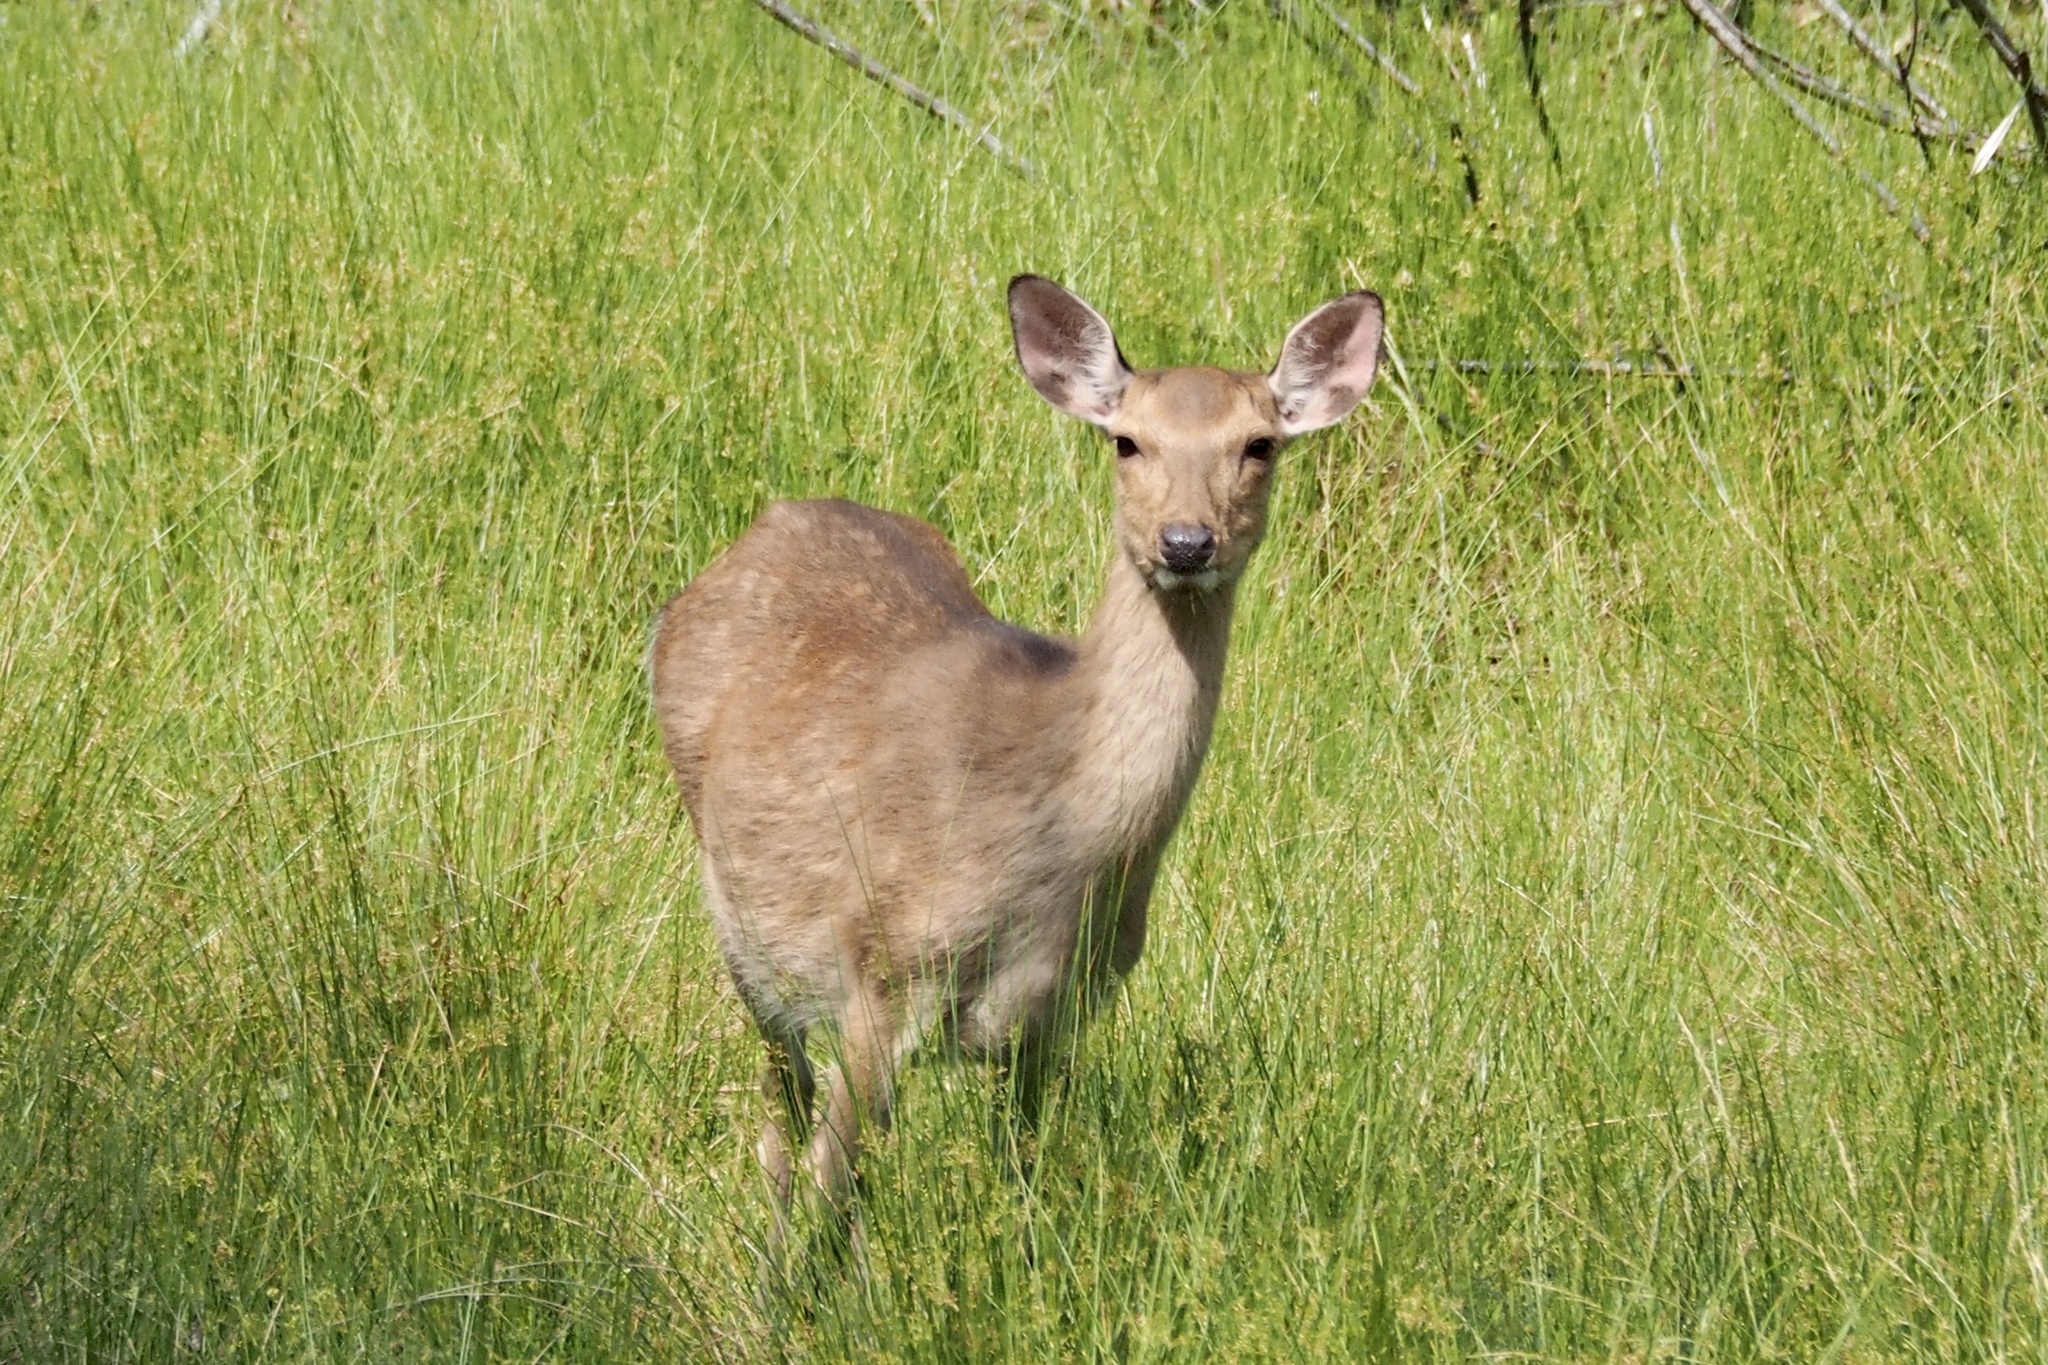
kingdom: Animalia
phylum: Chordata
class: Mammalia
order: Artiodactyla
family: Cervidae
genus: Cervus
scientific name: Cervus nippon
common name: Sika deer
